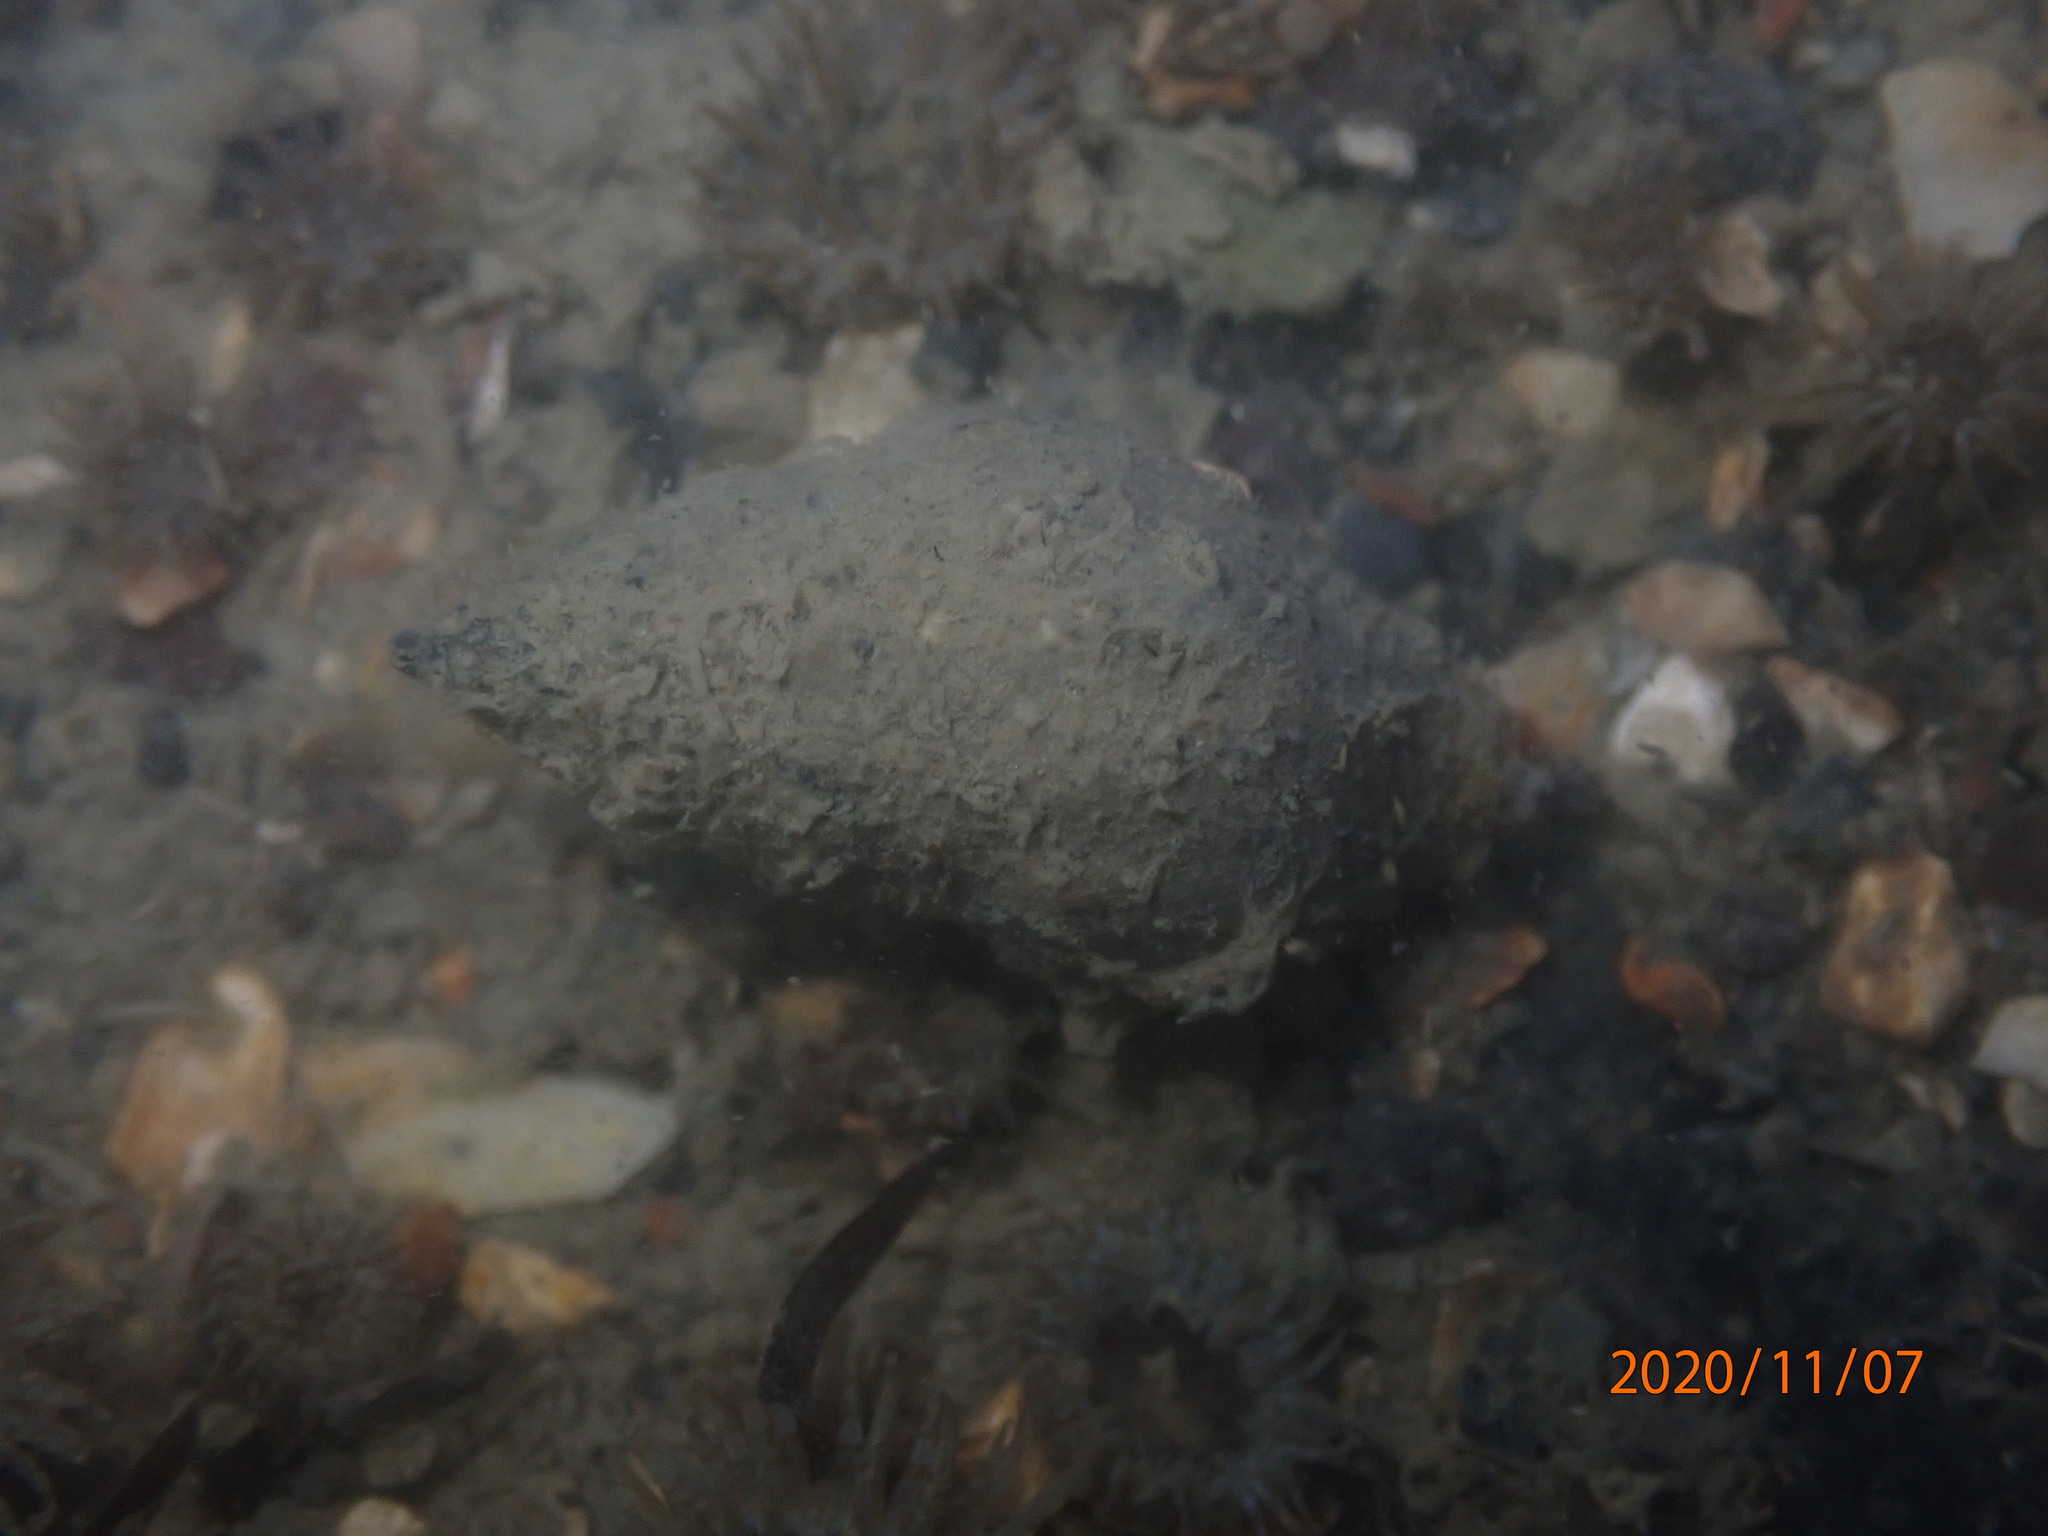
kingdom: Animalia
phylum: Mollusca
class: Gastropoda
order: Neogastropoda
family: Cominellidae
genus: Cominella
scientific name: Cominella glandiformis
